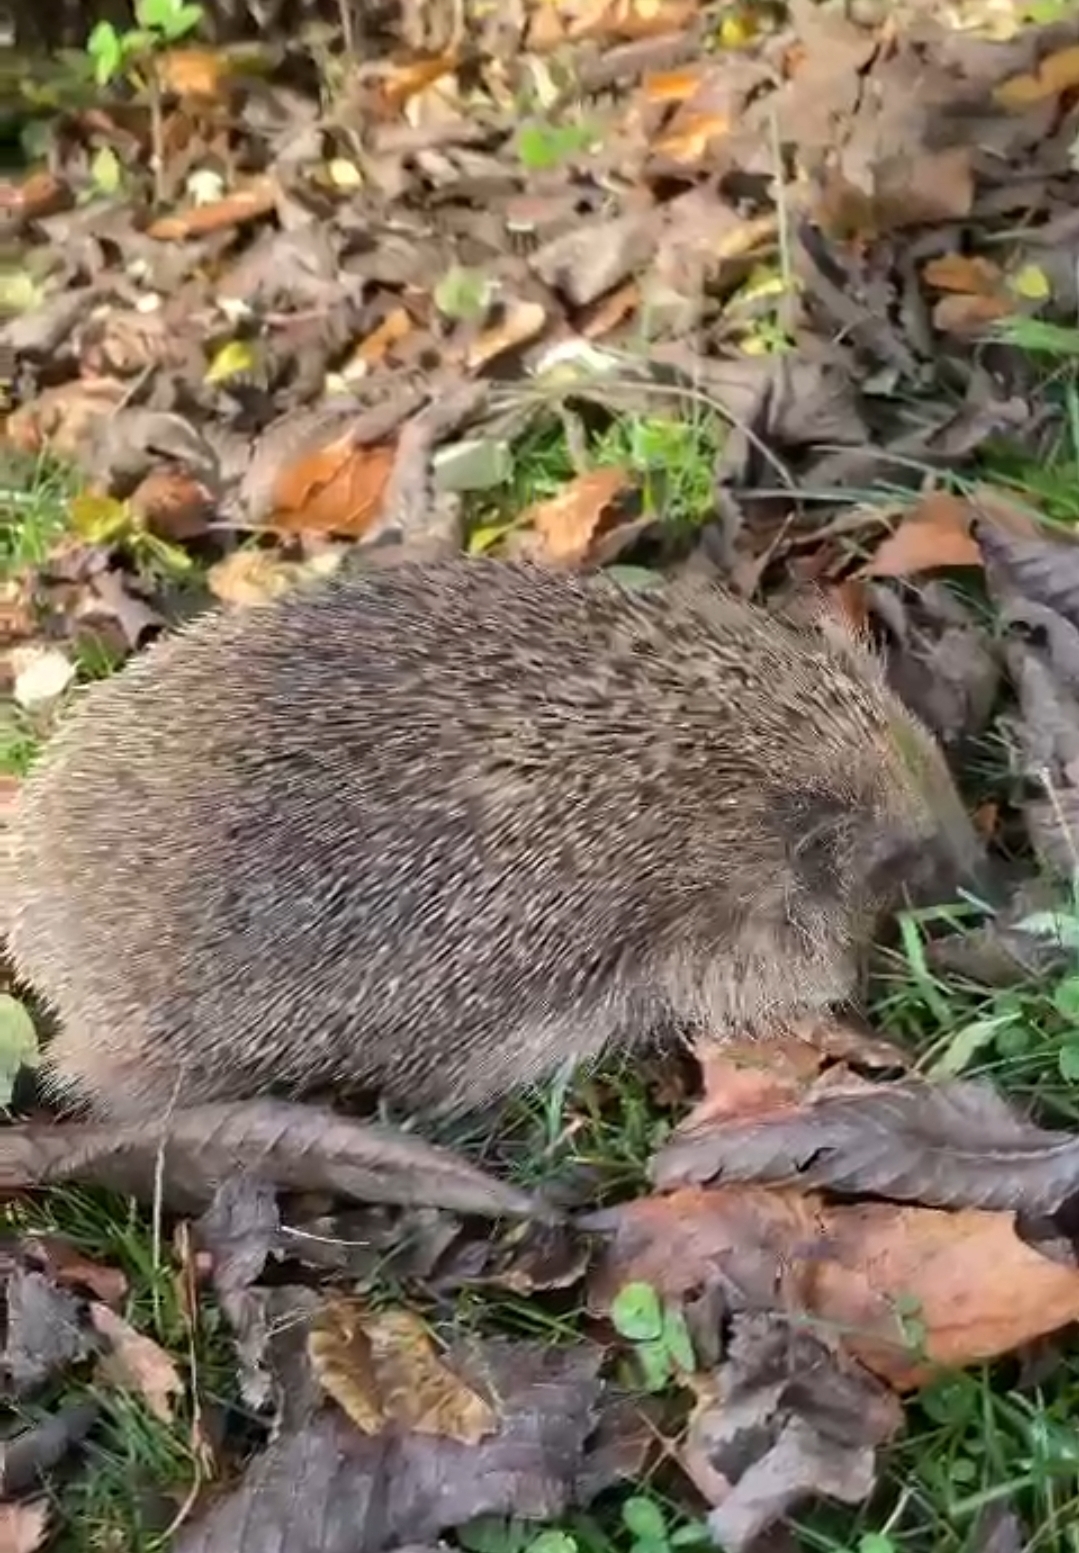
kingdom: Animalia
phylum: Chordata
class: Mammalia
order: Erinaceomorpha
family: Erinaceidae
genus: Erinaceus
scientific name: Erinaceus europaeus
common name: West european hedgehog
